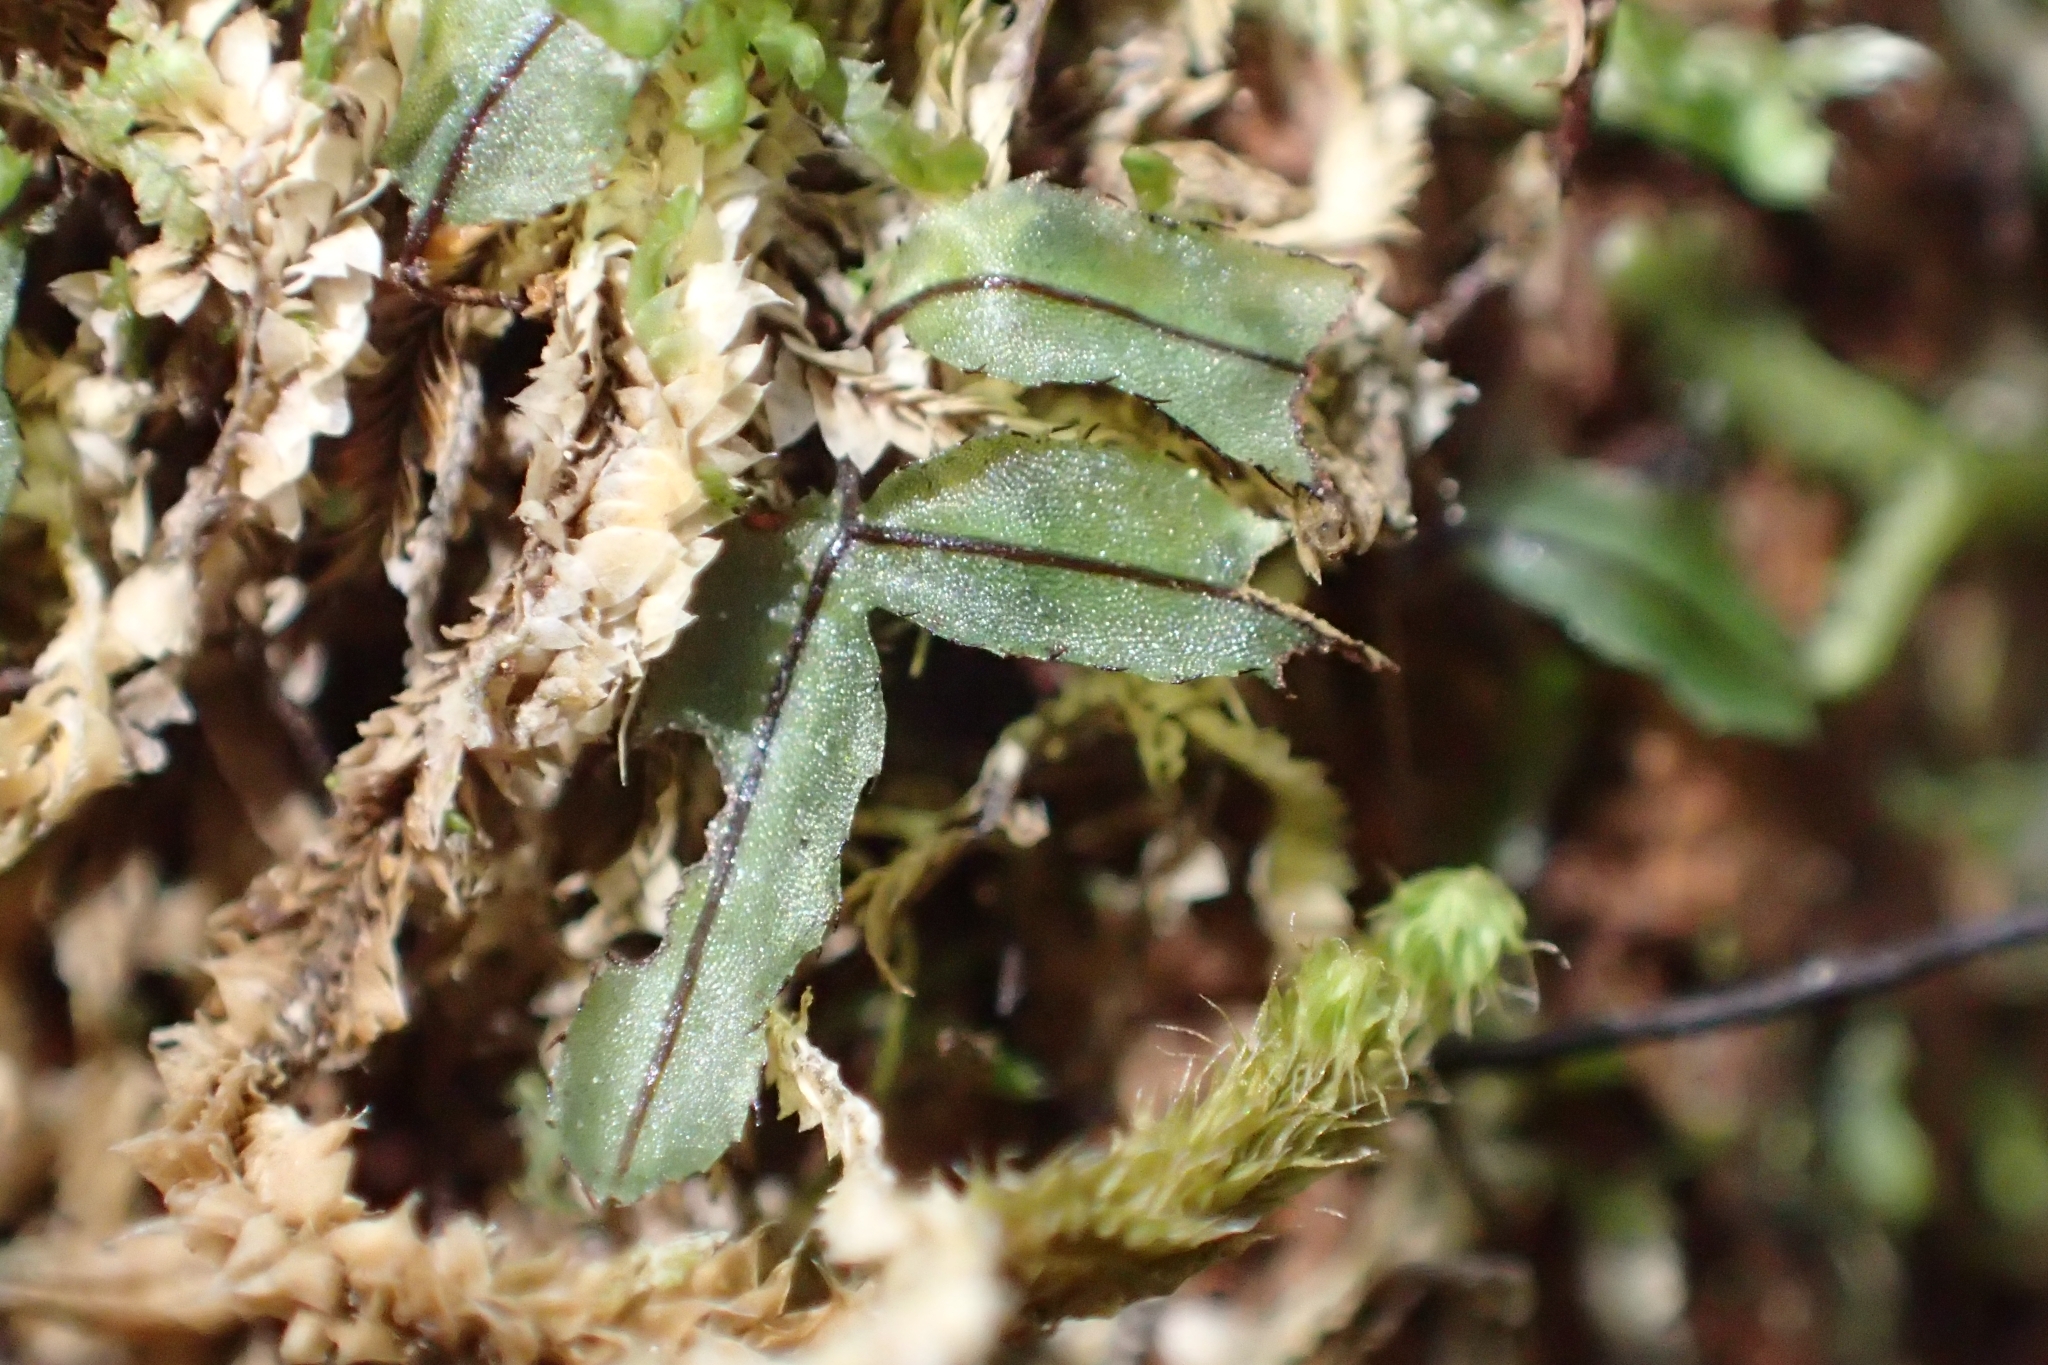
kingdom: Plantae
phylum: Tracheophyta
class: Polypodiopsida
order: Hymenophyllales
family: Hymenophyllaceae
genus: Hymenophyllum
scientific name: Hymenophyllum armstrongii
